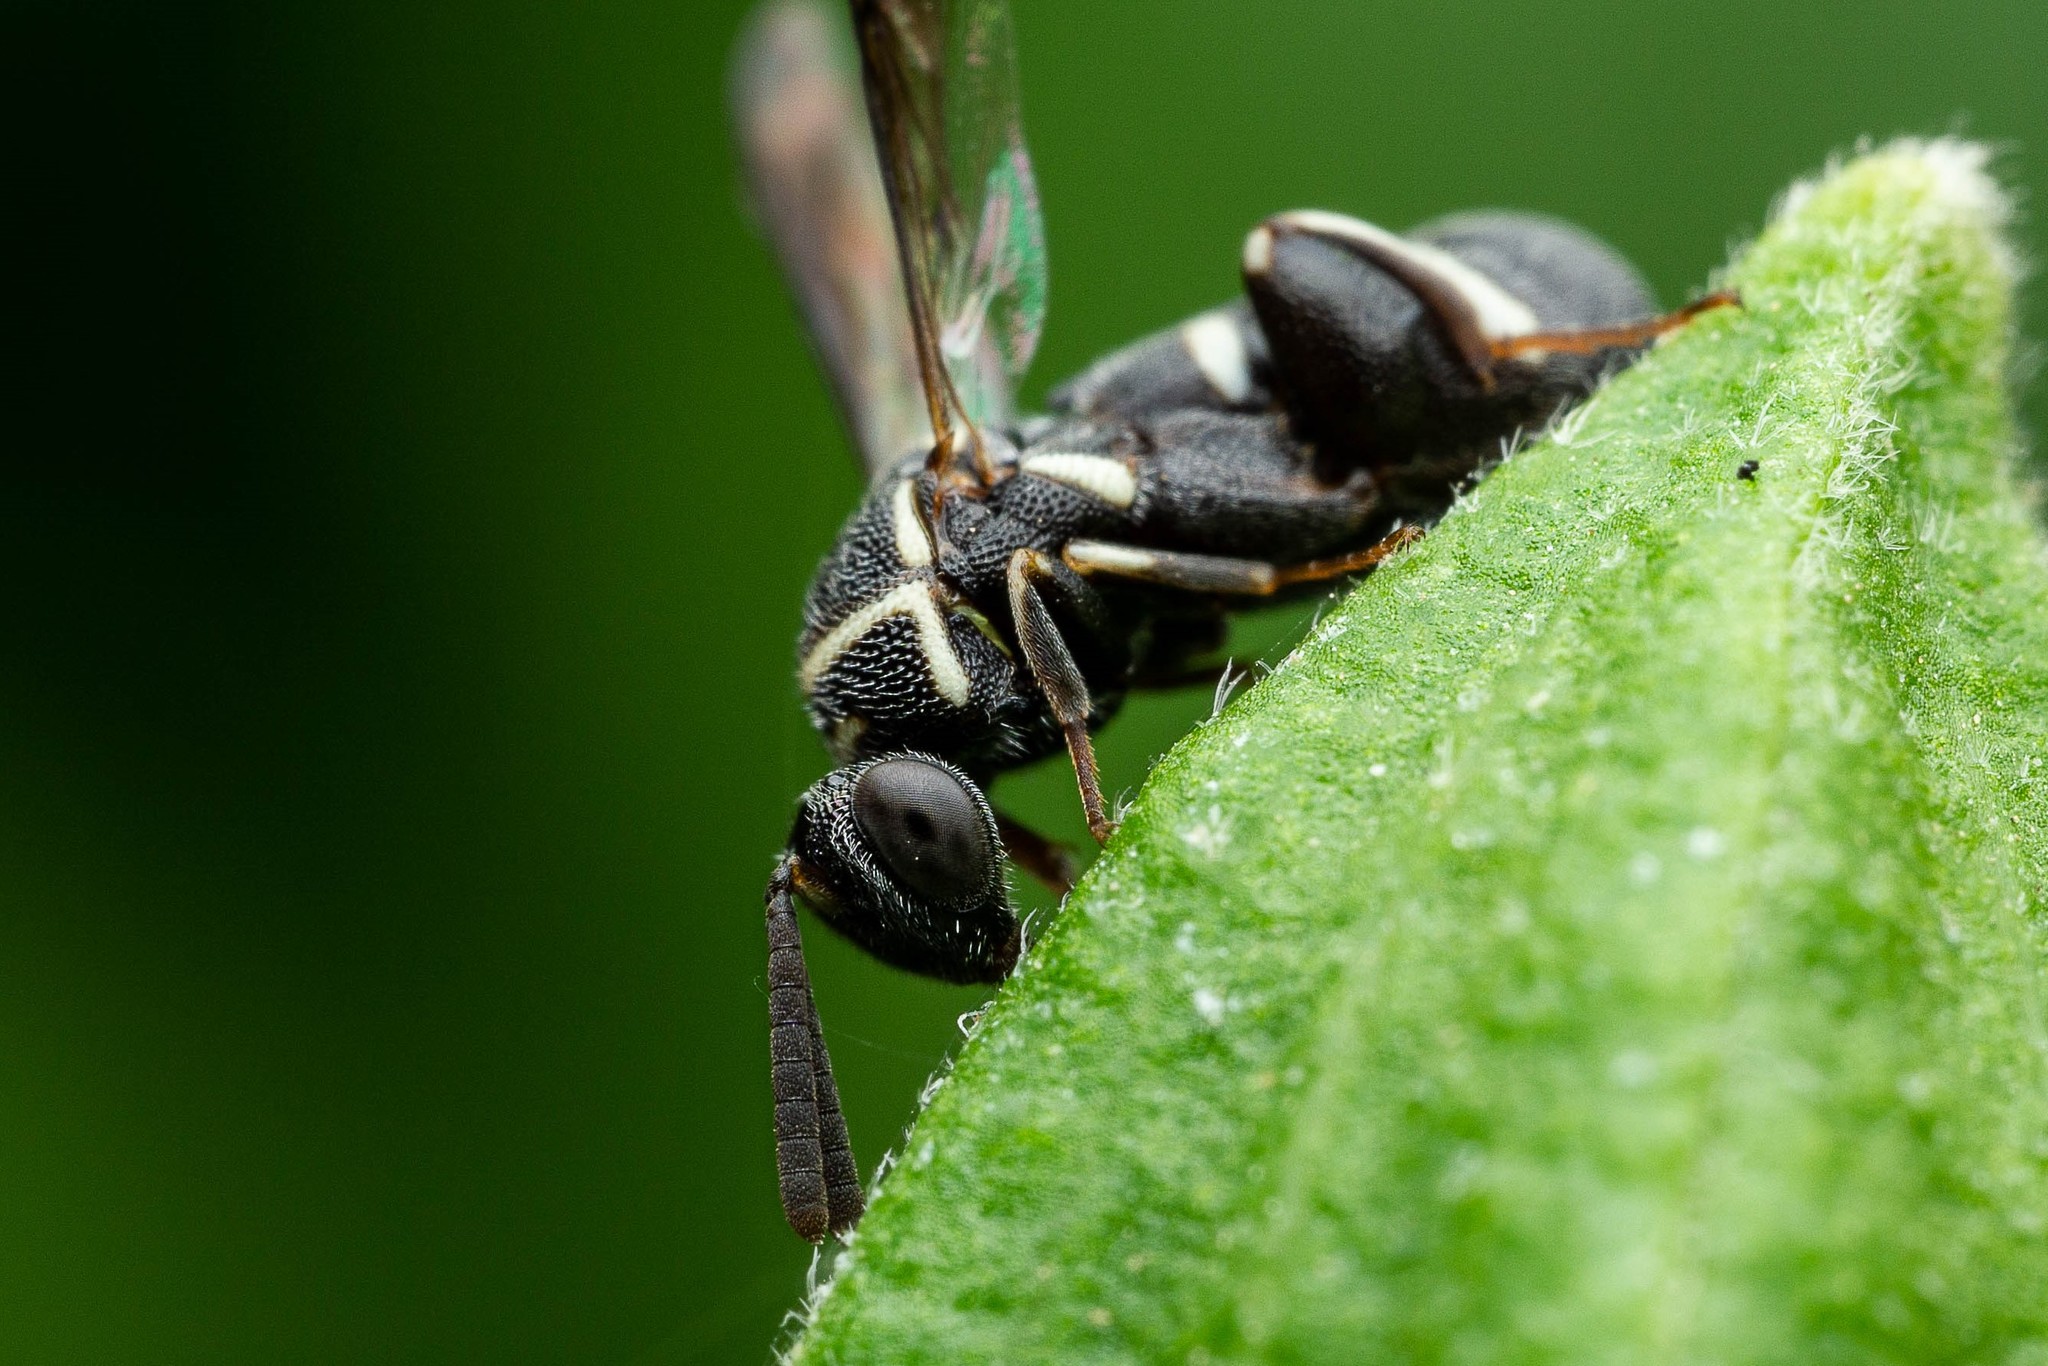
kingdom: Animalia
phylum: Arthropoda
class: Insecta
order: Hymenoptera
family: Leucospidae
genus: Leucospis
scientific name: Leucospis affinis
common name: Wasp
